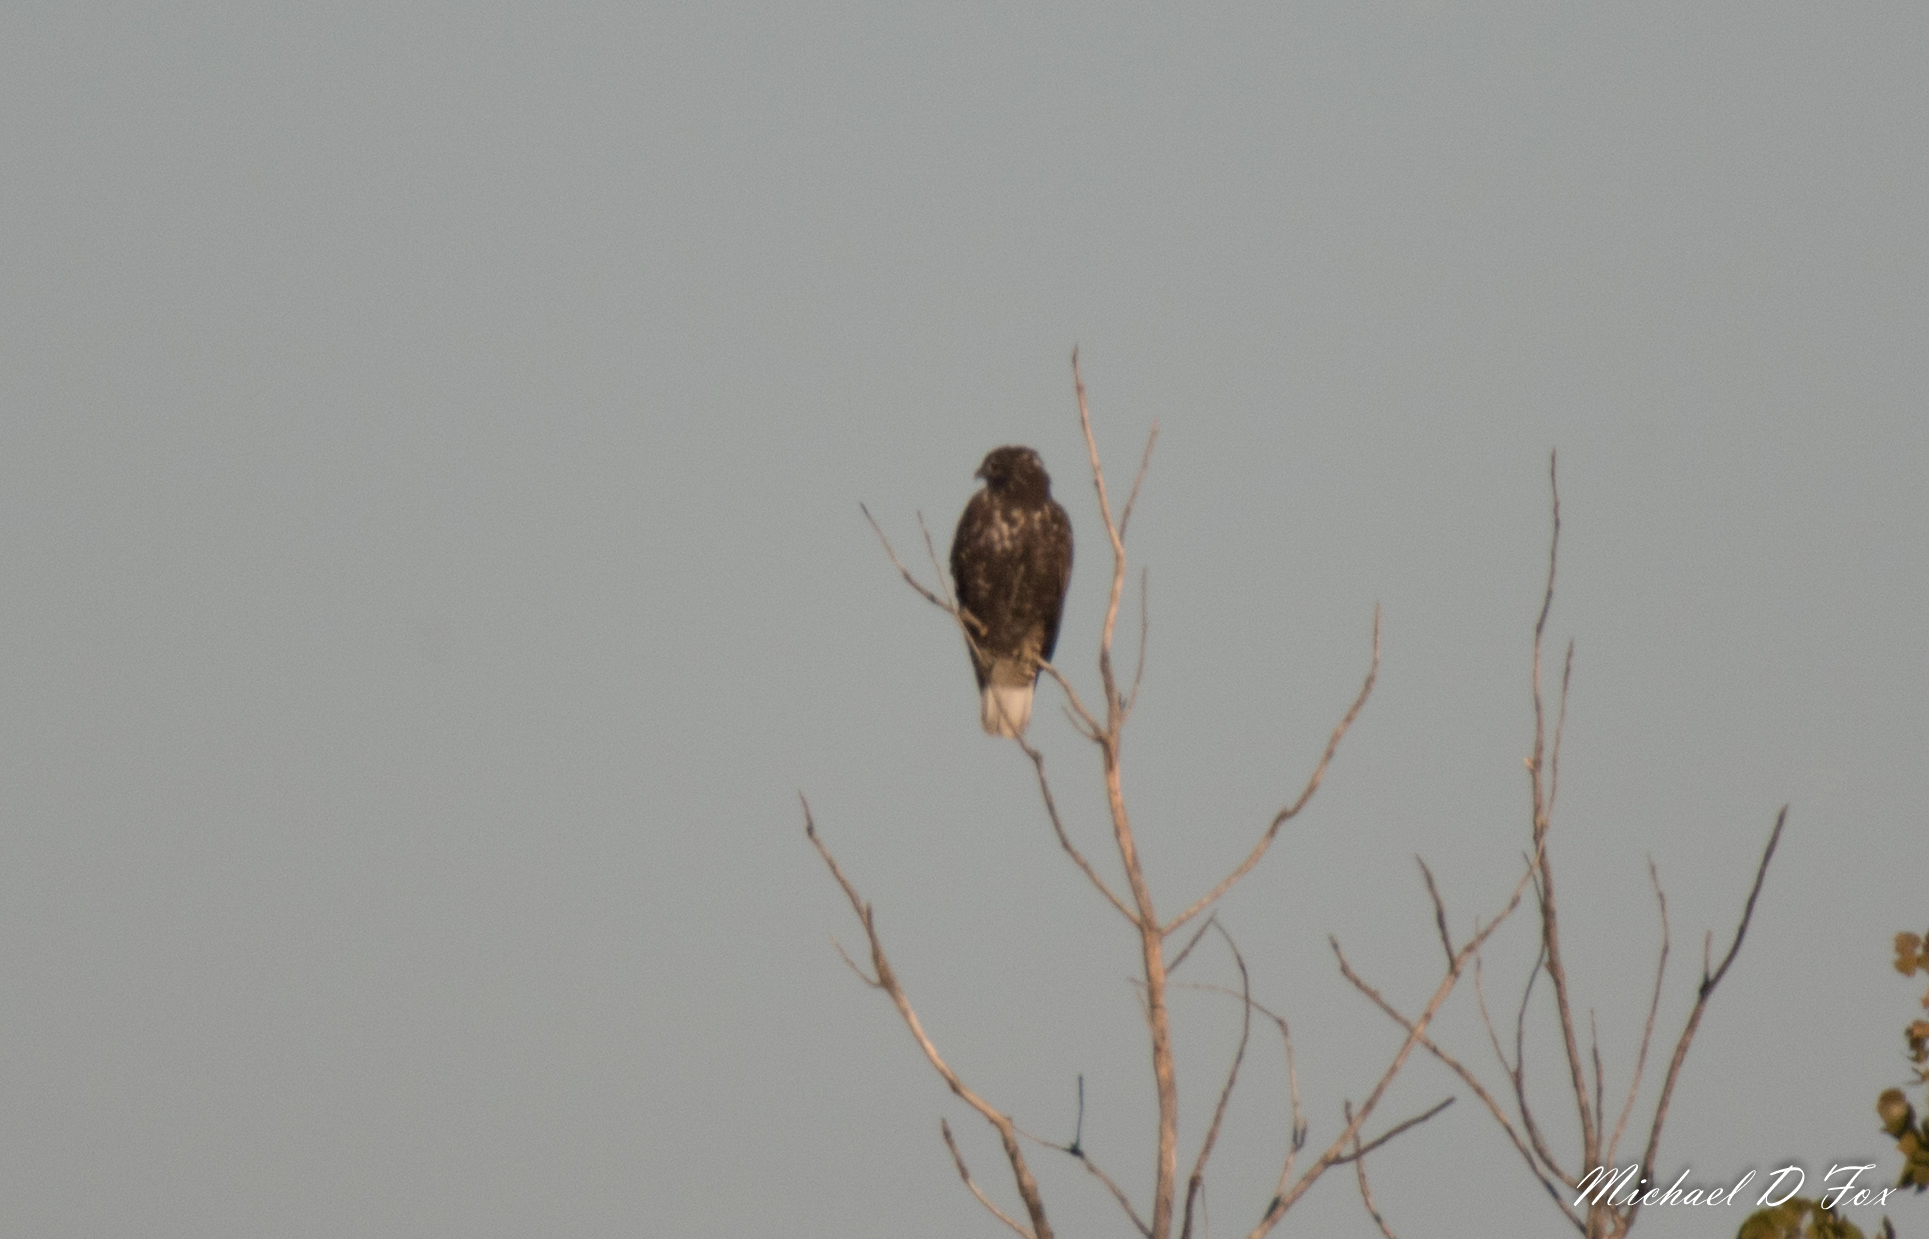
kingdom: Animalia
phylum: Chordata
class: Aves
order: Accipitriformes
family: Accipitridae
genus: Buteo
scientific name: Buteo jamaicensis
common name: Red-tailed hawk
